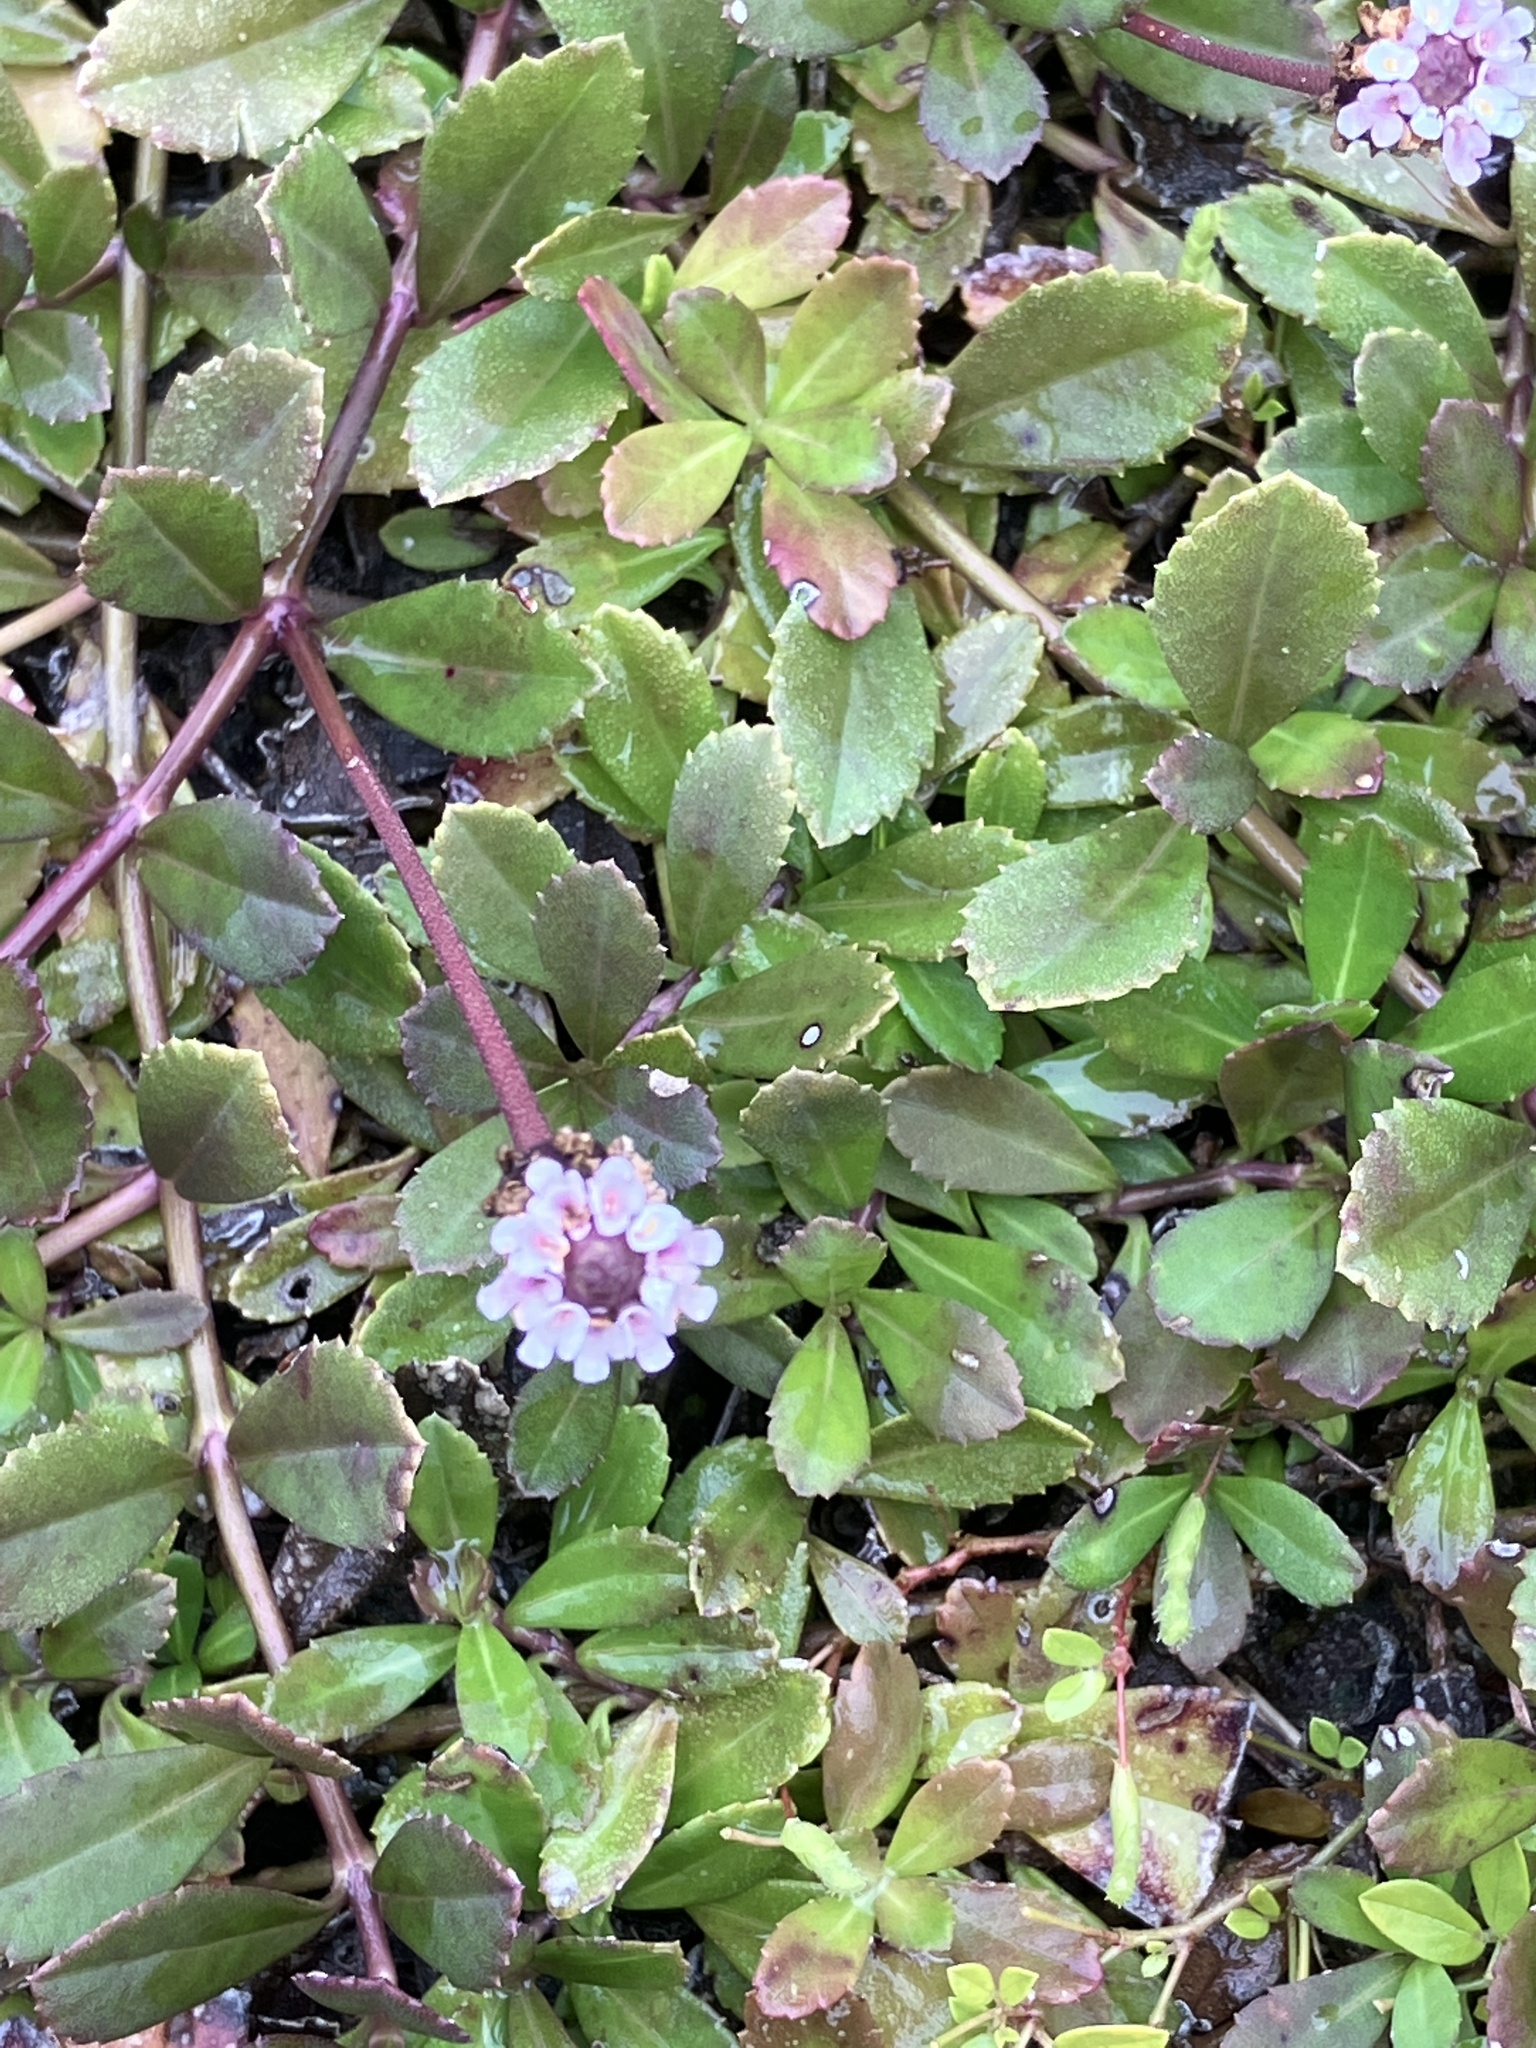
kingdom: Plantae
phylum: Tracheophyta
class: Magnoliopsida
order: Lamiales
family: Verbenaceae
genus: Phyla
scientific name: Phyla nodiflora
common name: Frogfruit
